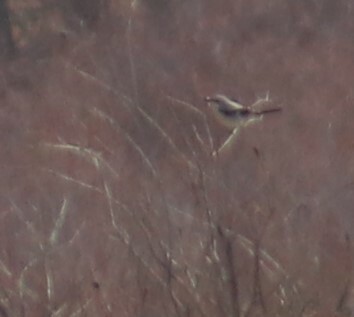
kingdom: Animalia
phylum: Chordata
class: Aves
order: Passeriformes
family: Laniidae
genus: Lanius
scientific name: Lanius borealis
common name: Northern shrike
